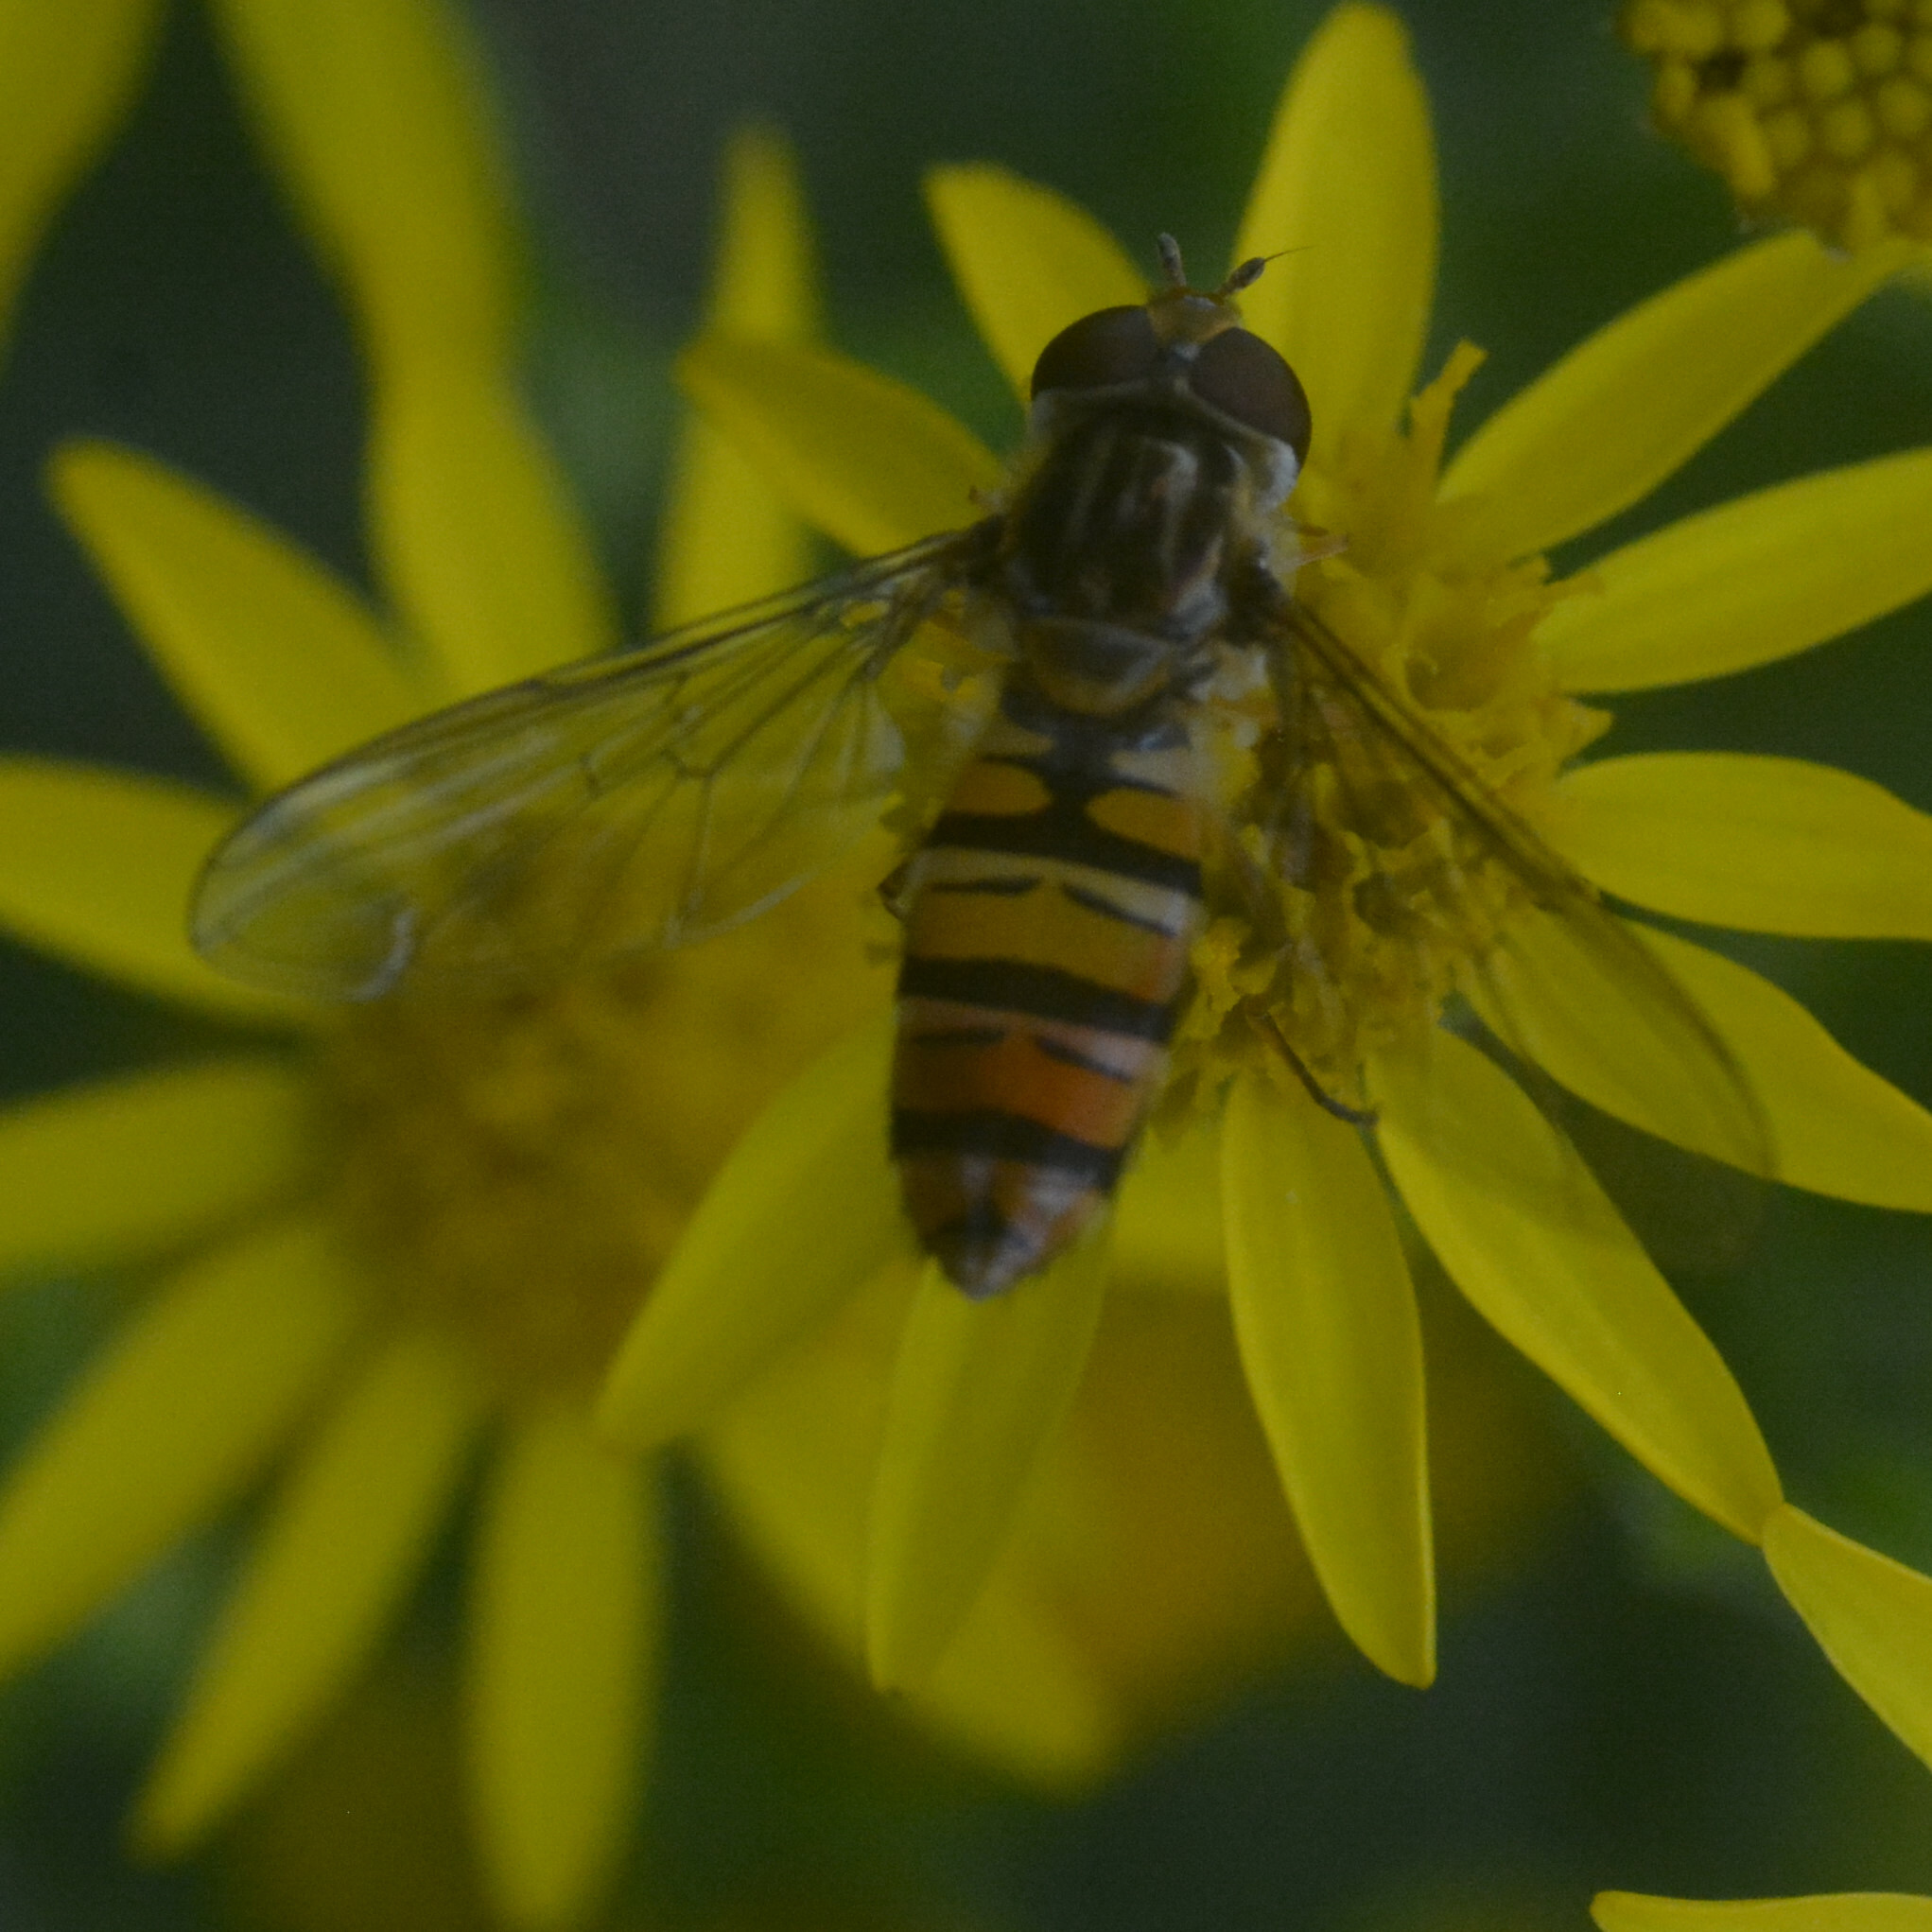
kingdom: Animalia
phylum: Arthropoda
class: Insecta
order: Diptera
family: Syrphidae
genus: Episyrphus
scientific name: Episyrphus balteatus
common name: Marmalade hoverfly
